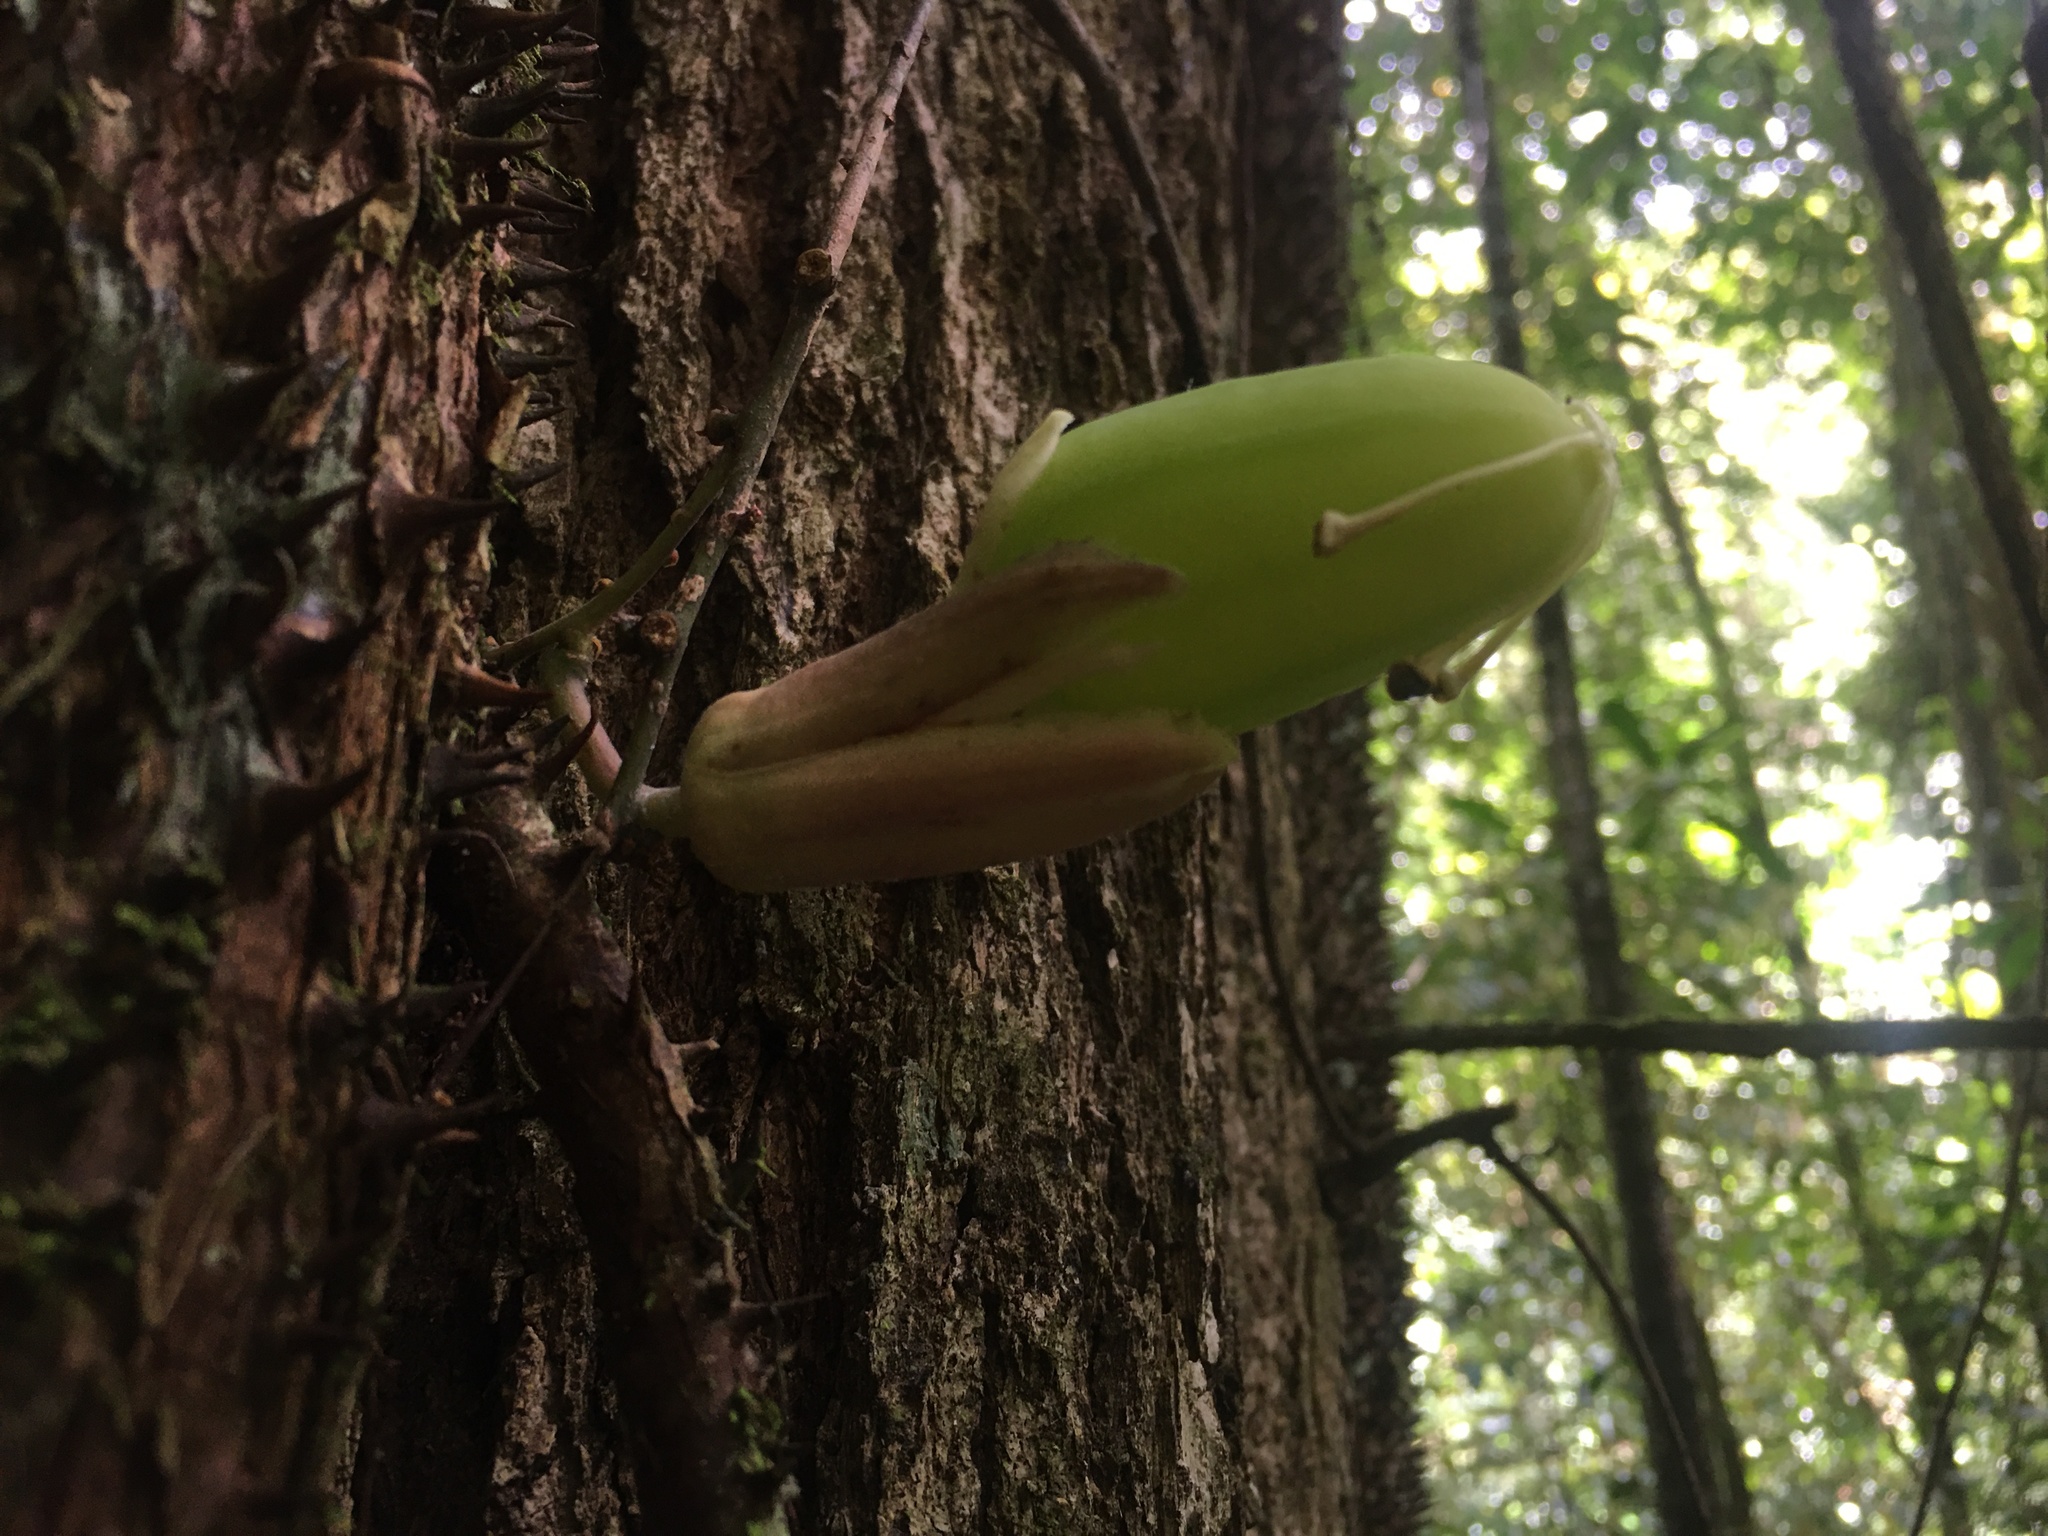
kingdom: Plantae
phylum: Tracheophyta
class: Magnoliopsida
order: Malpighiales
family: Passifloraceae
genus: Passiflora
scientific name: Passiflora contracta
